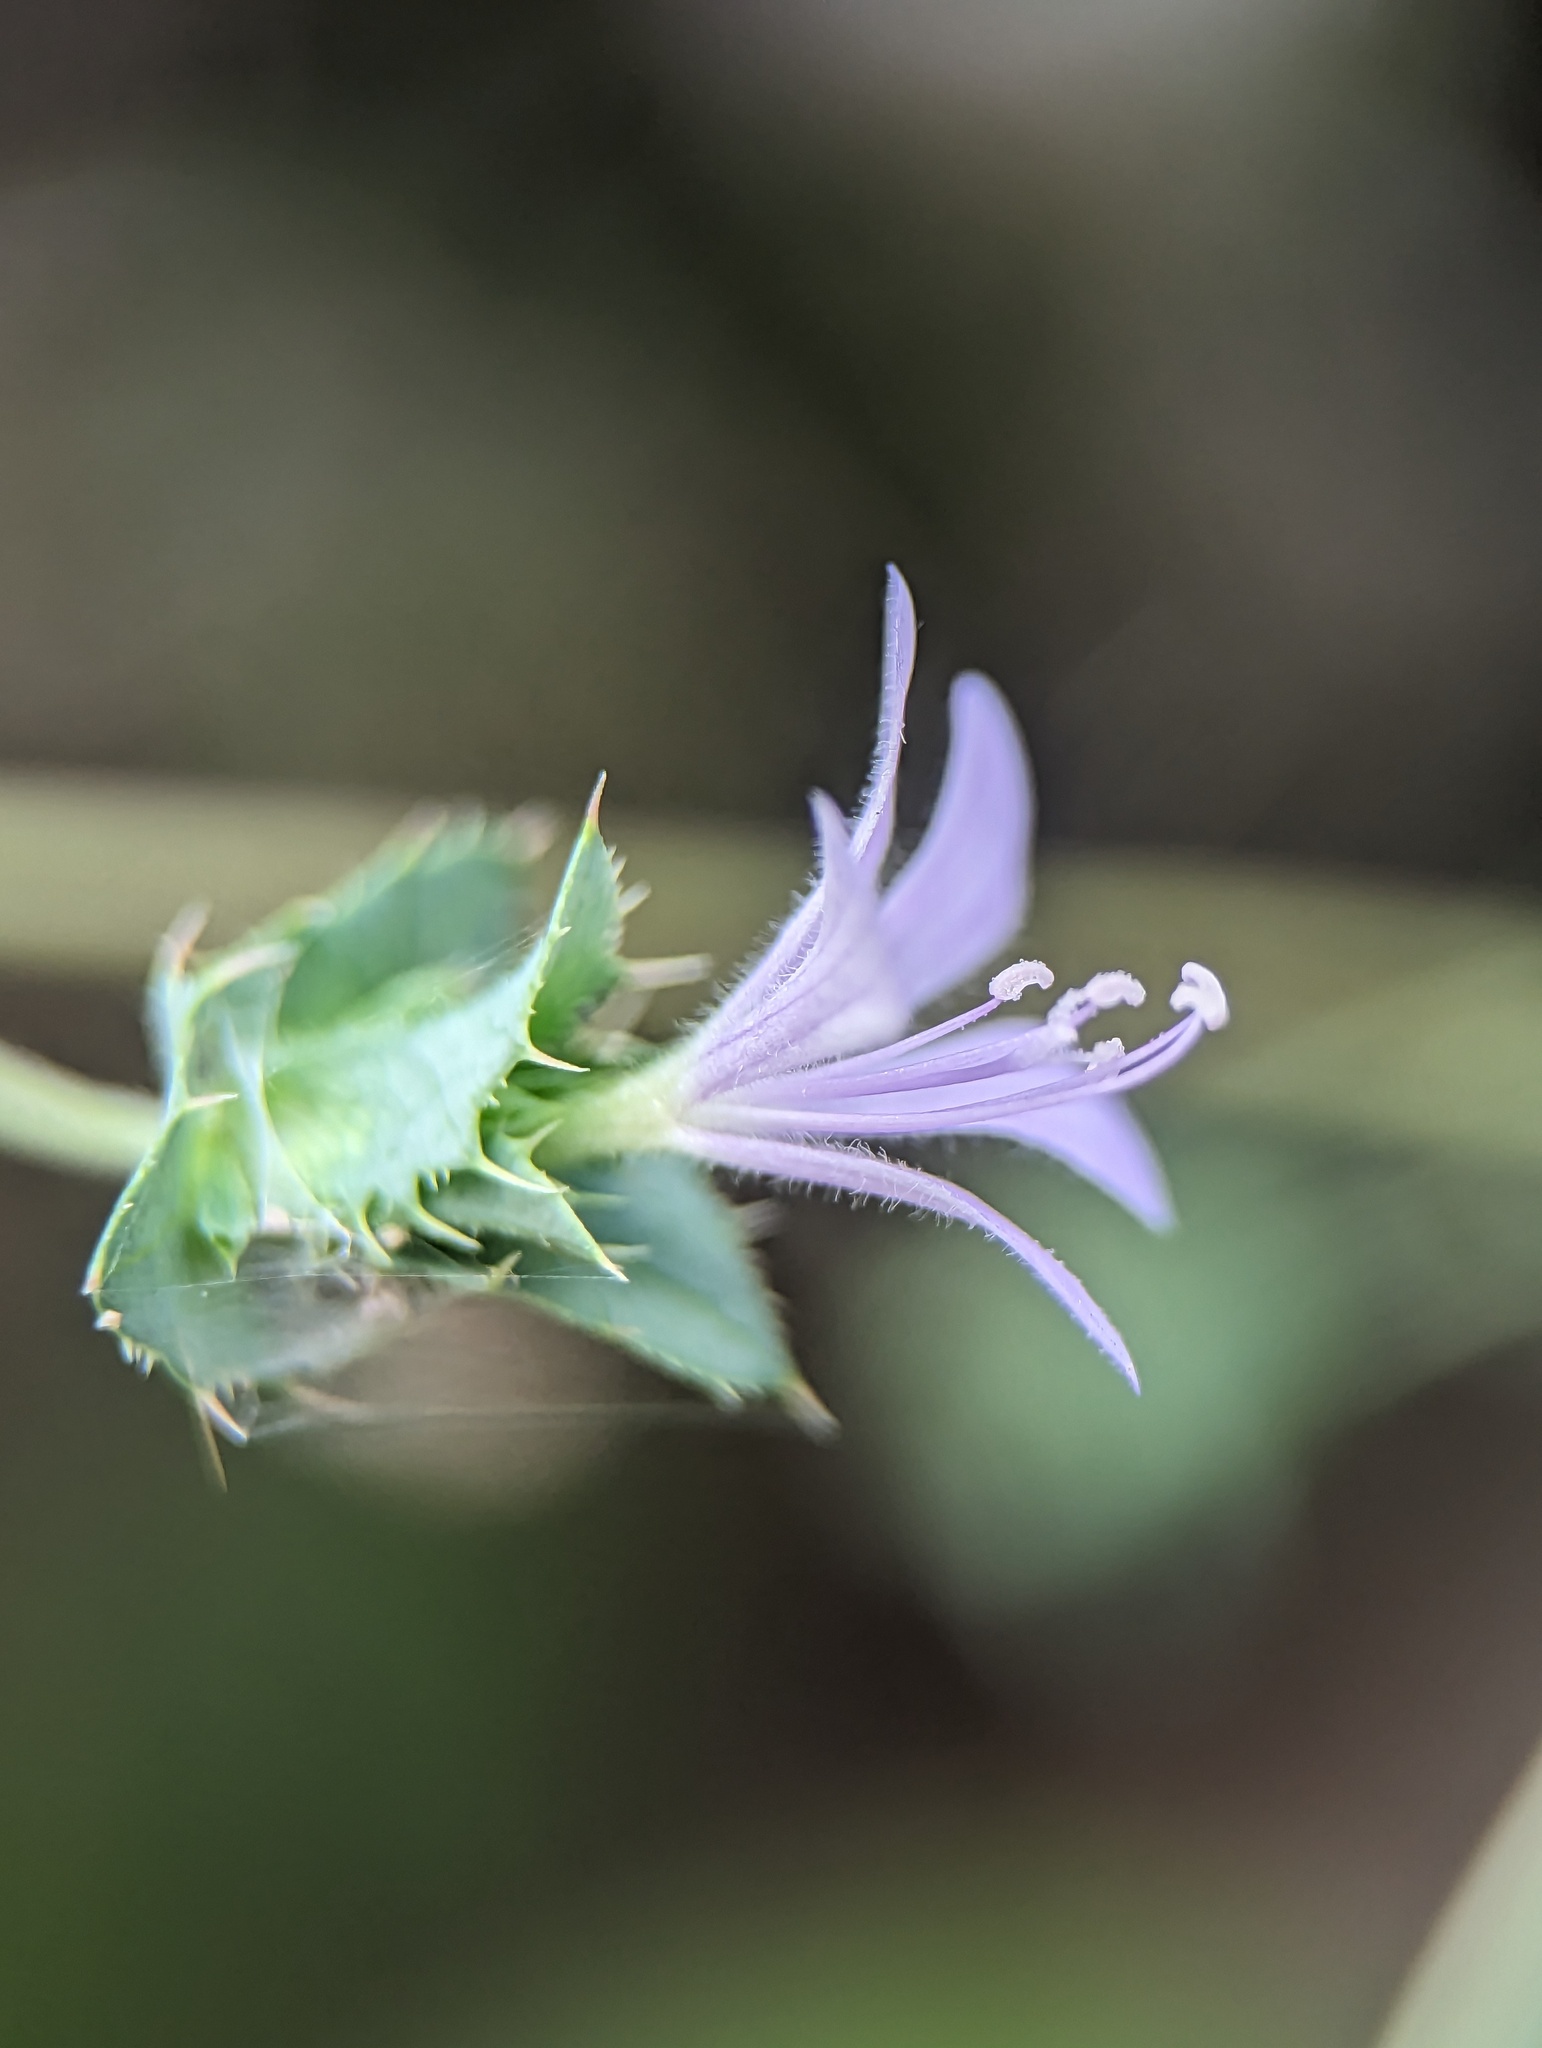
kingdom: Plantae
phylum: Tracheophyta
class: Magnoliopsida
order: Ericales
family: Polemoniaceae
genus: Loeselia
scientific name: Loeselia ciliata
